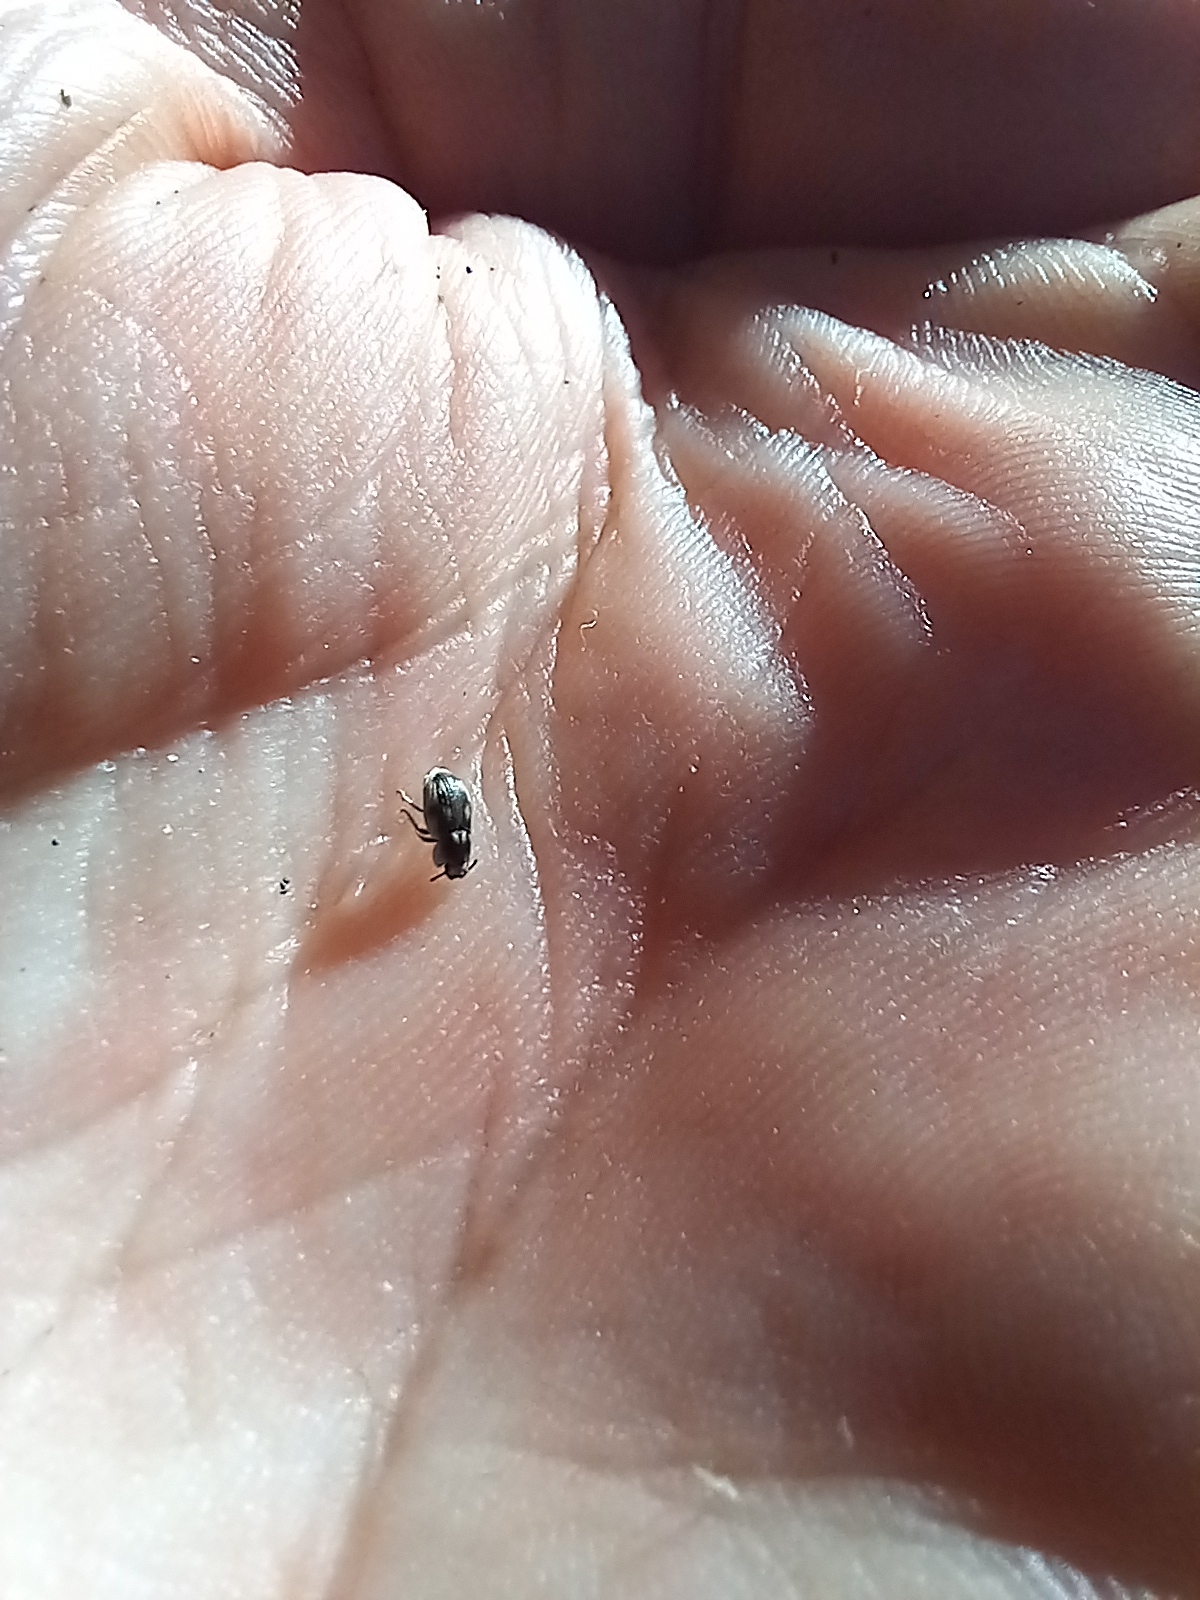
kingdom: Animalia
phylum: Arthropoda
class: Insecta
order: Coleoptera
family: Tenebrionidae
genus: Actizeta
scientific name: Actizeta
